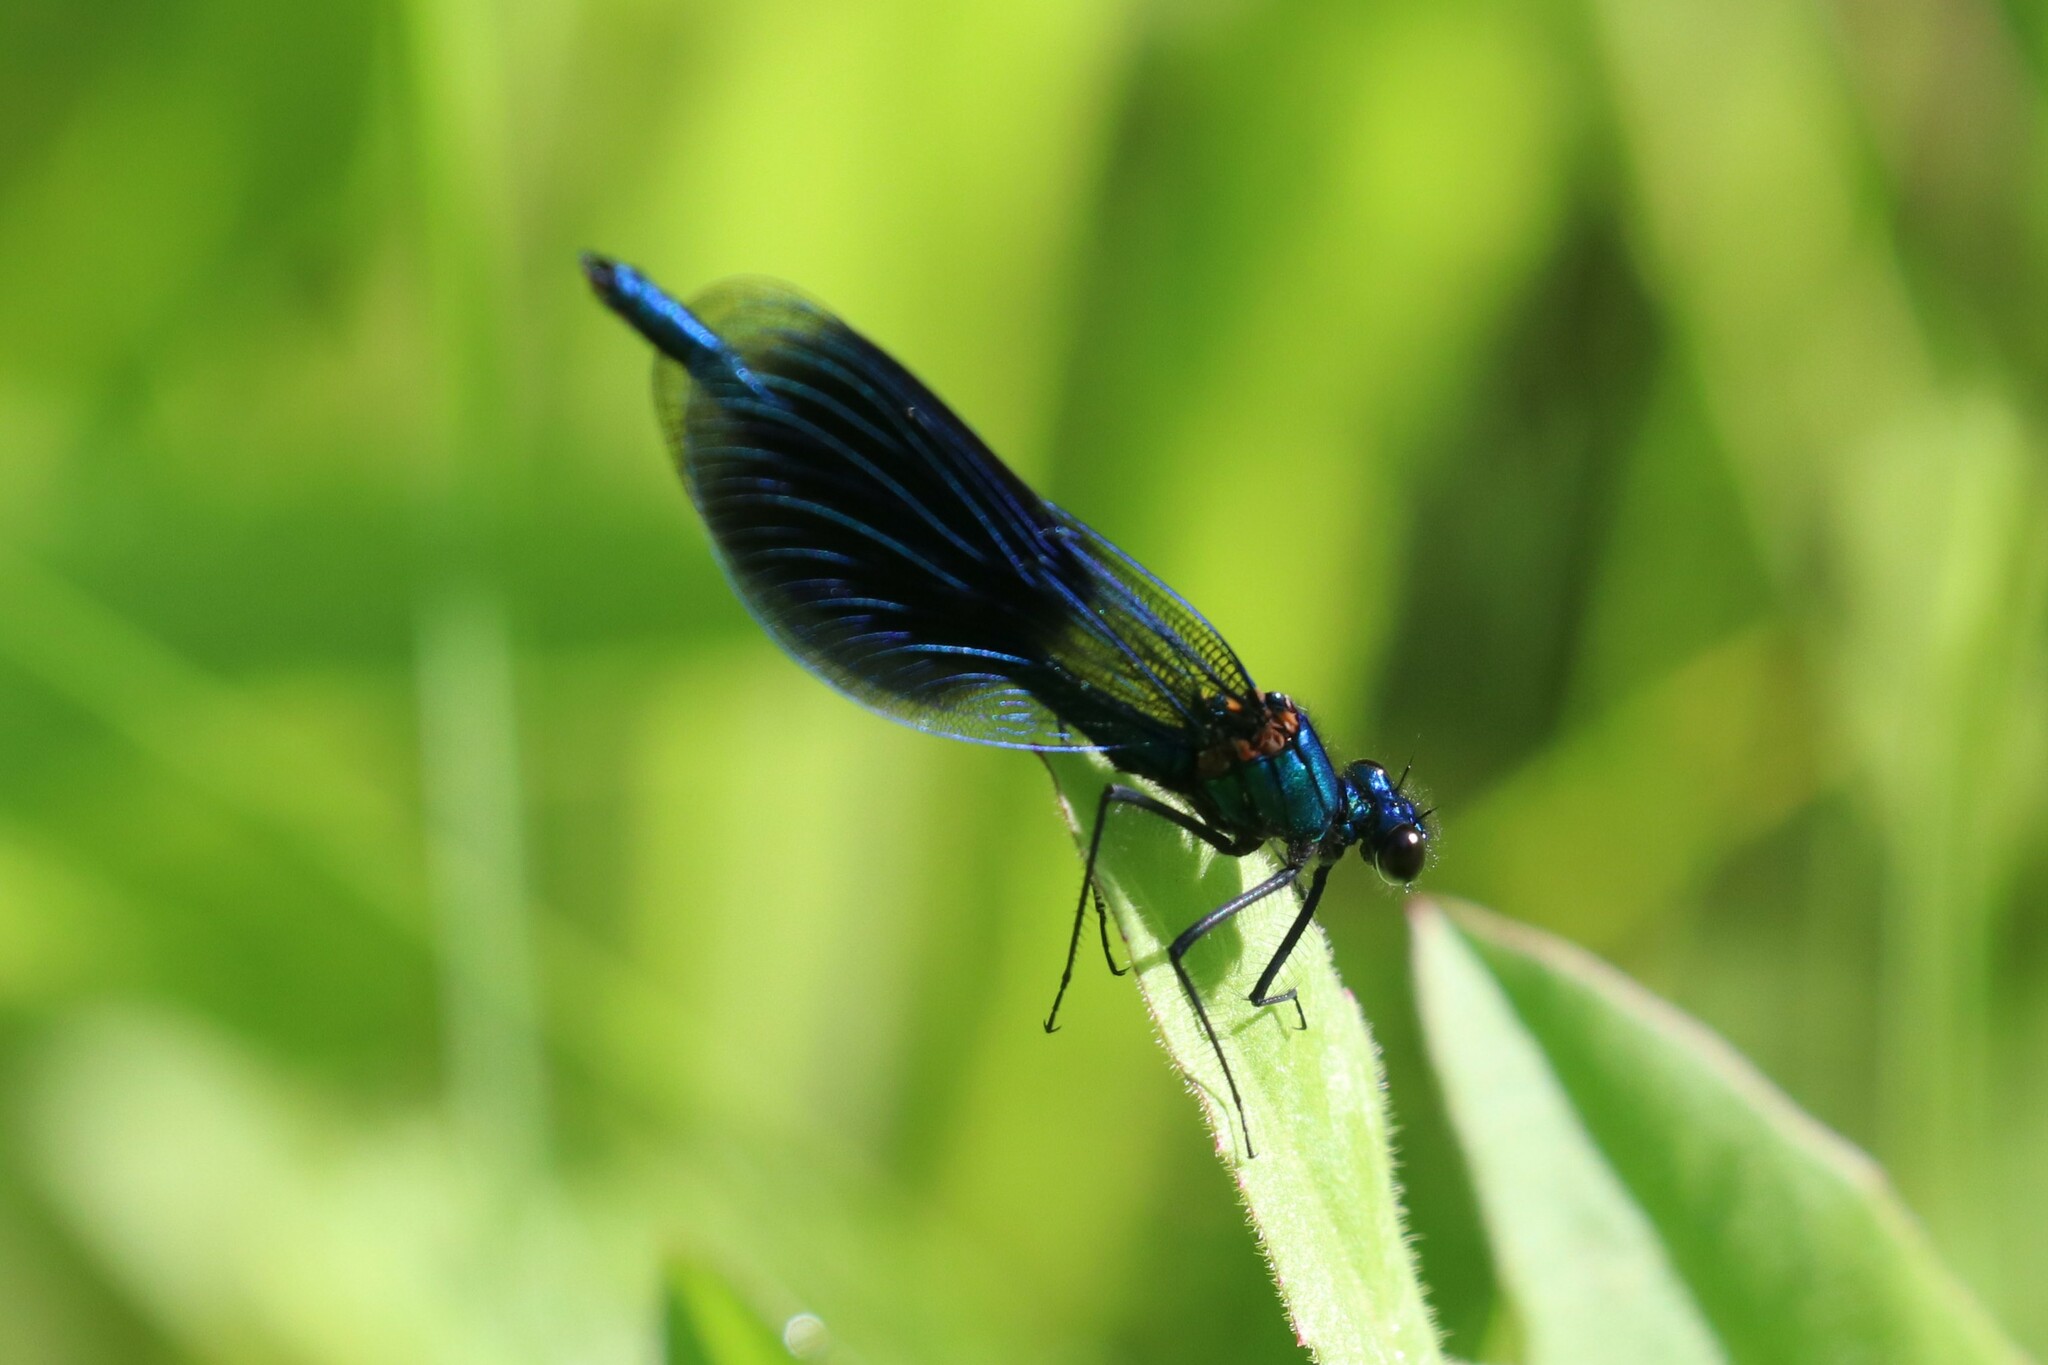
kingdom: Animalia
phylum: Arthropoda
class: Insecta
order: Odonata
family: Calopterygidae
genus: Calopteryx
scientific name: Calopteryx splendens
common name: Banded demoiselle
